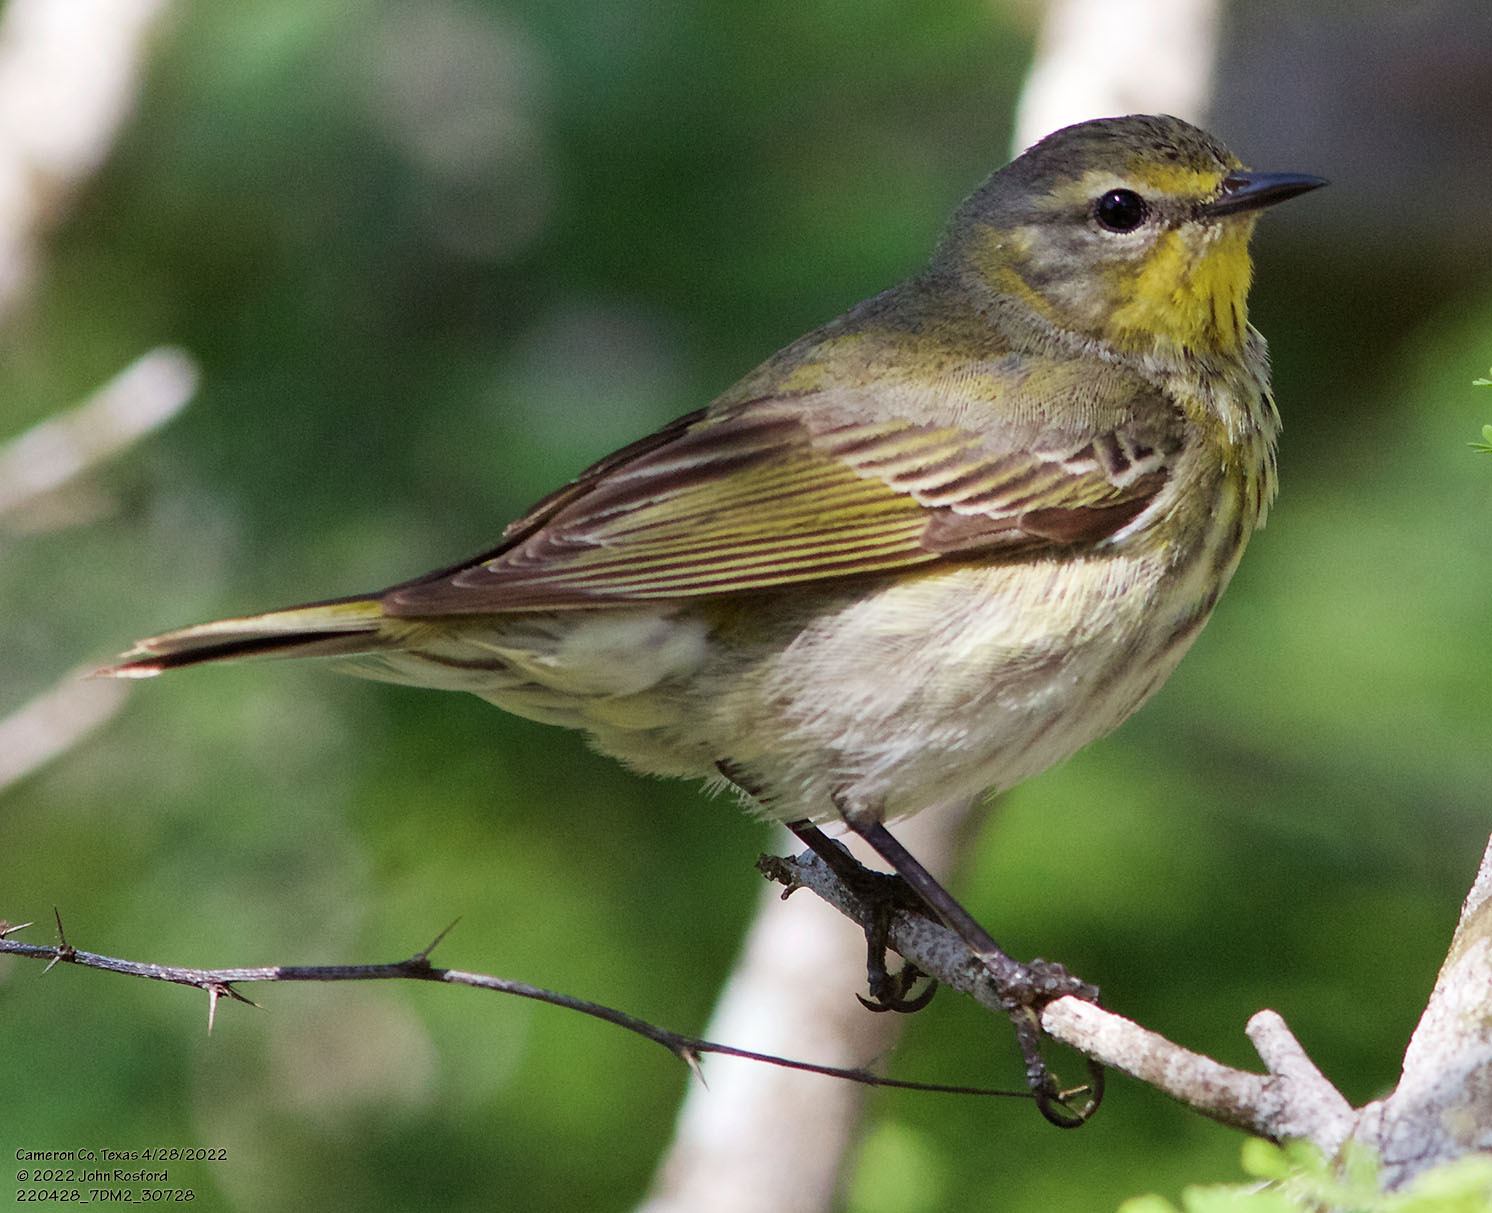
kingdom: Animalia
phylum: Chordata
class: Aves
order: Passeriformes
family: Parulidae
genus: Setophaga
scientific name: Setophaga tigrina
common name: Cape may warbler
